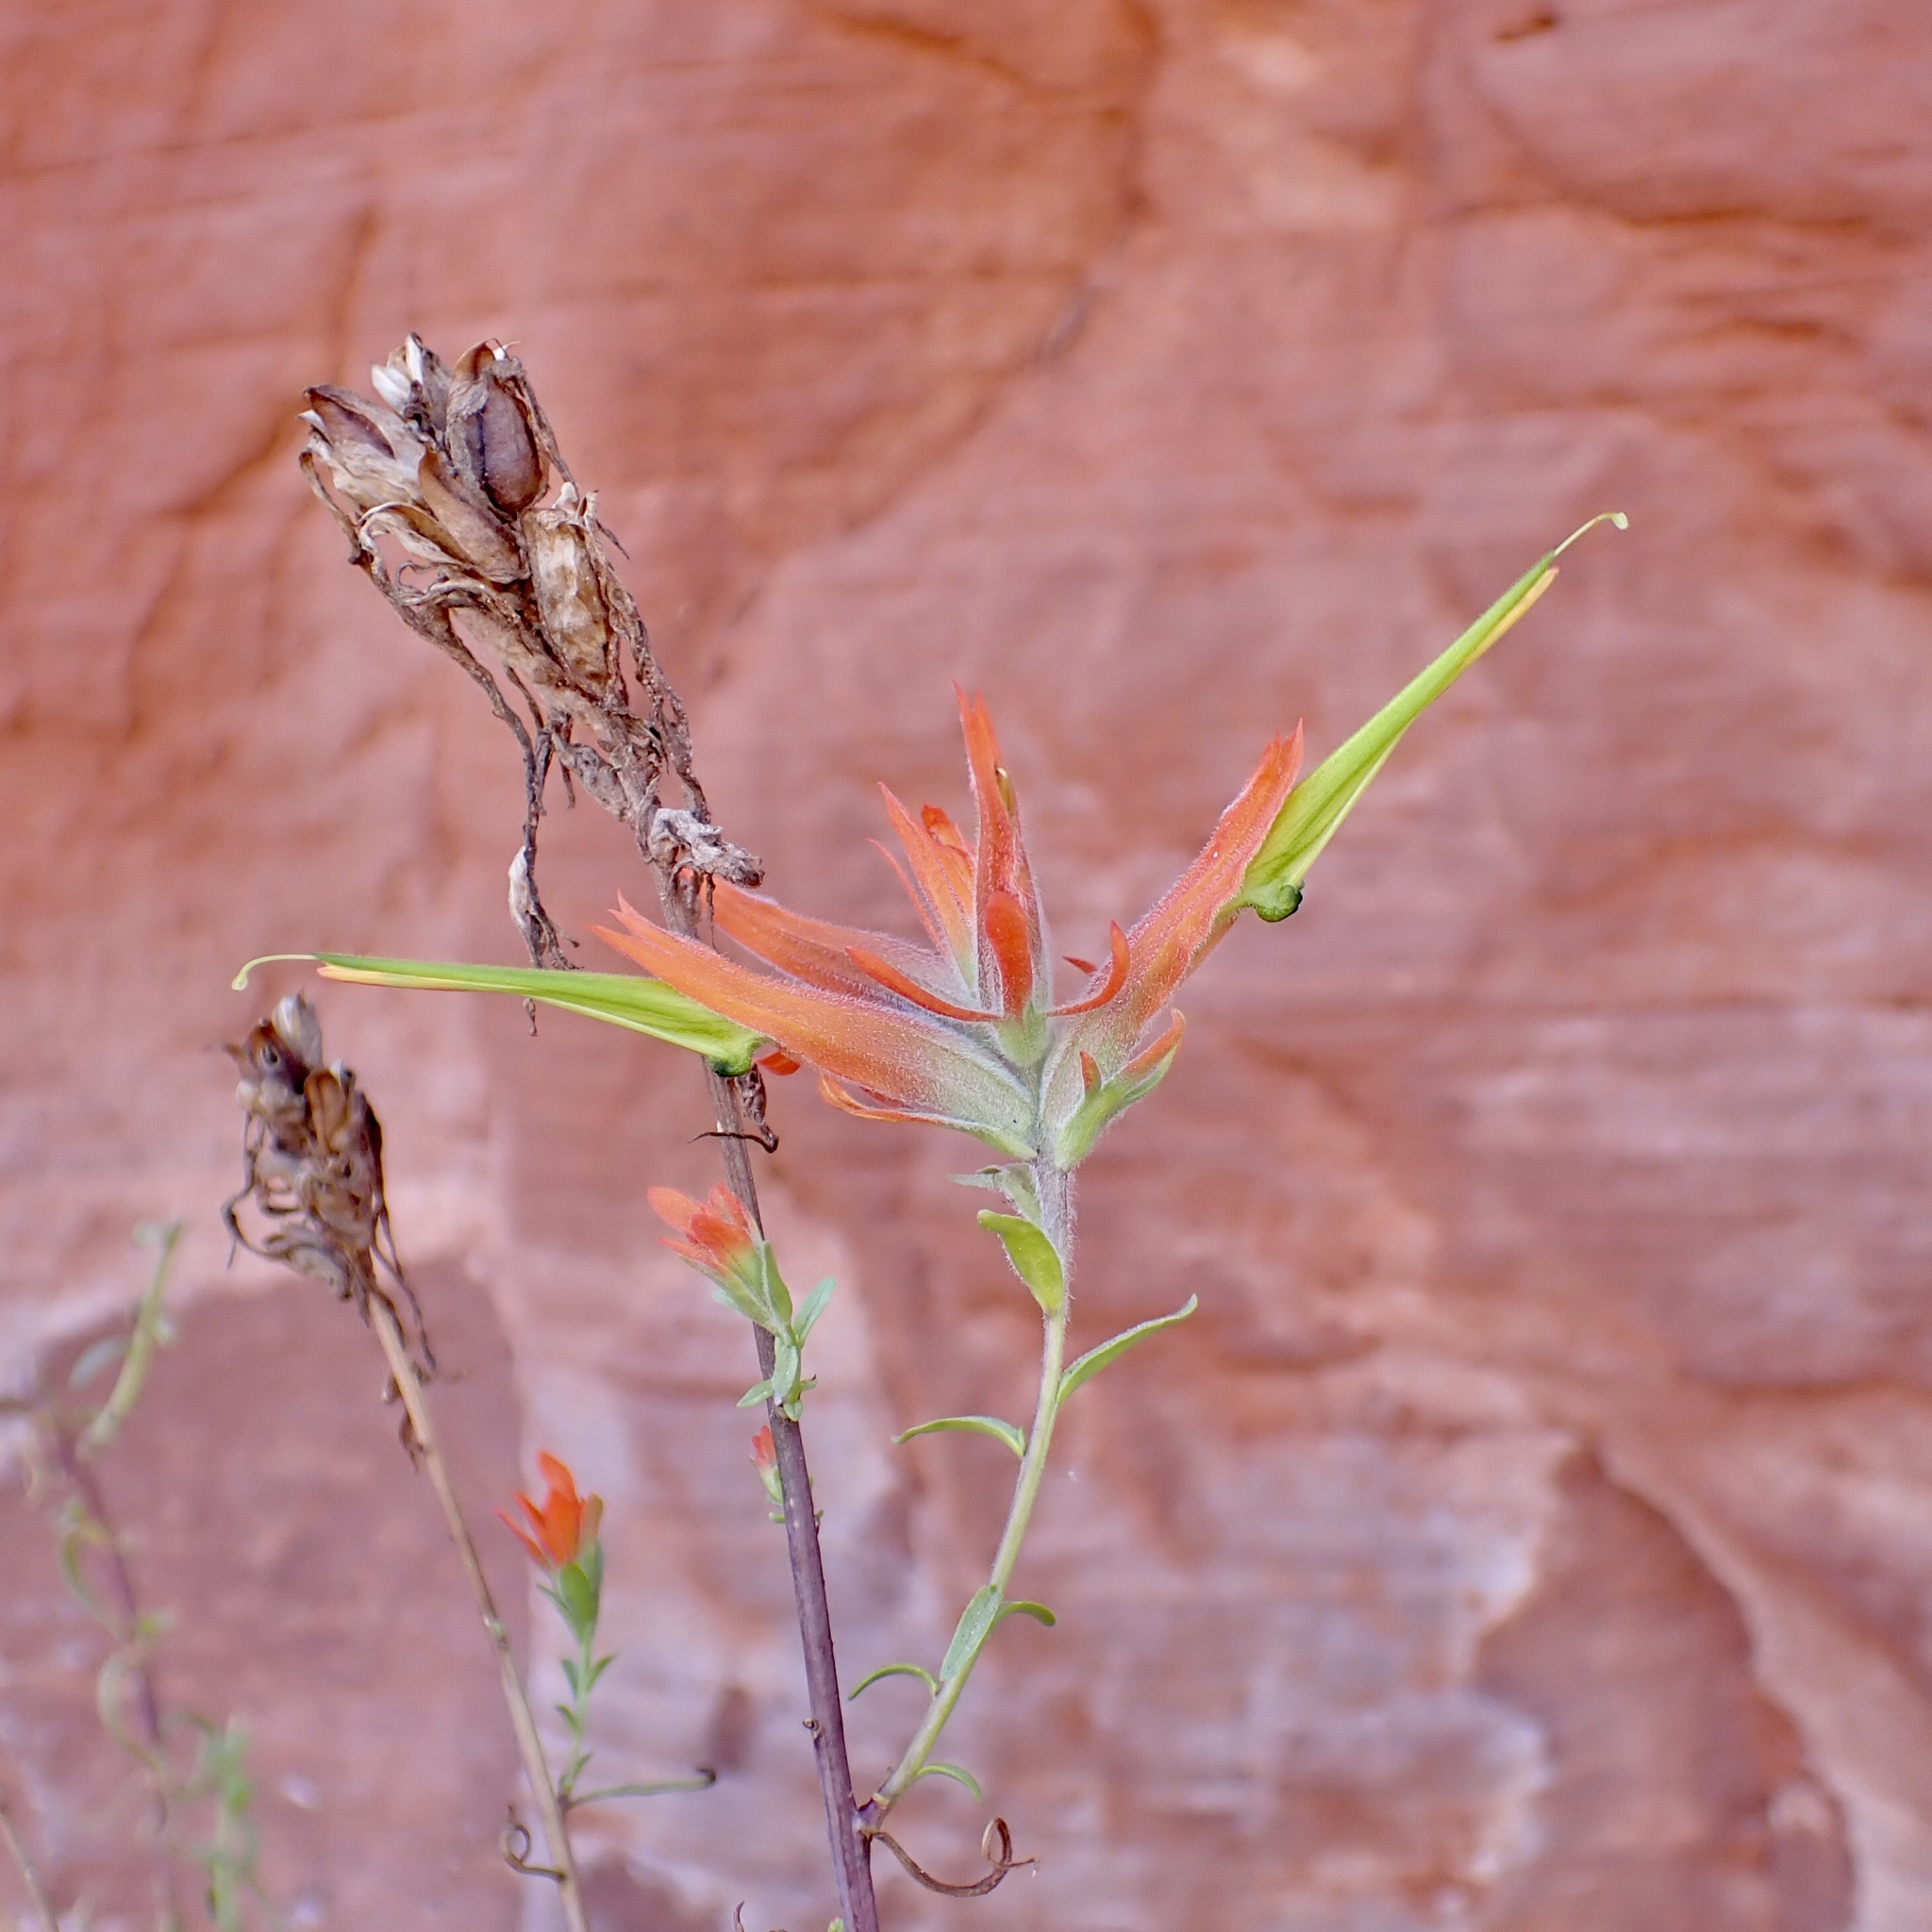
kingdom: Plantae
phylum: Tracheophyta
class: Magnoliopsida
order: Lamiales
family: Orobanchaceae
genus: Castilleja
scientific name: Castilleja linariifolia
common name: Wyoming paintbrush
